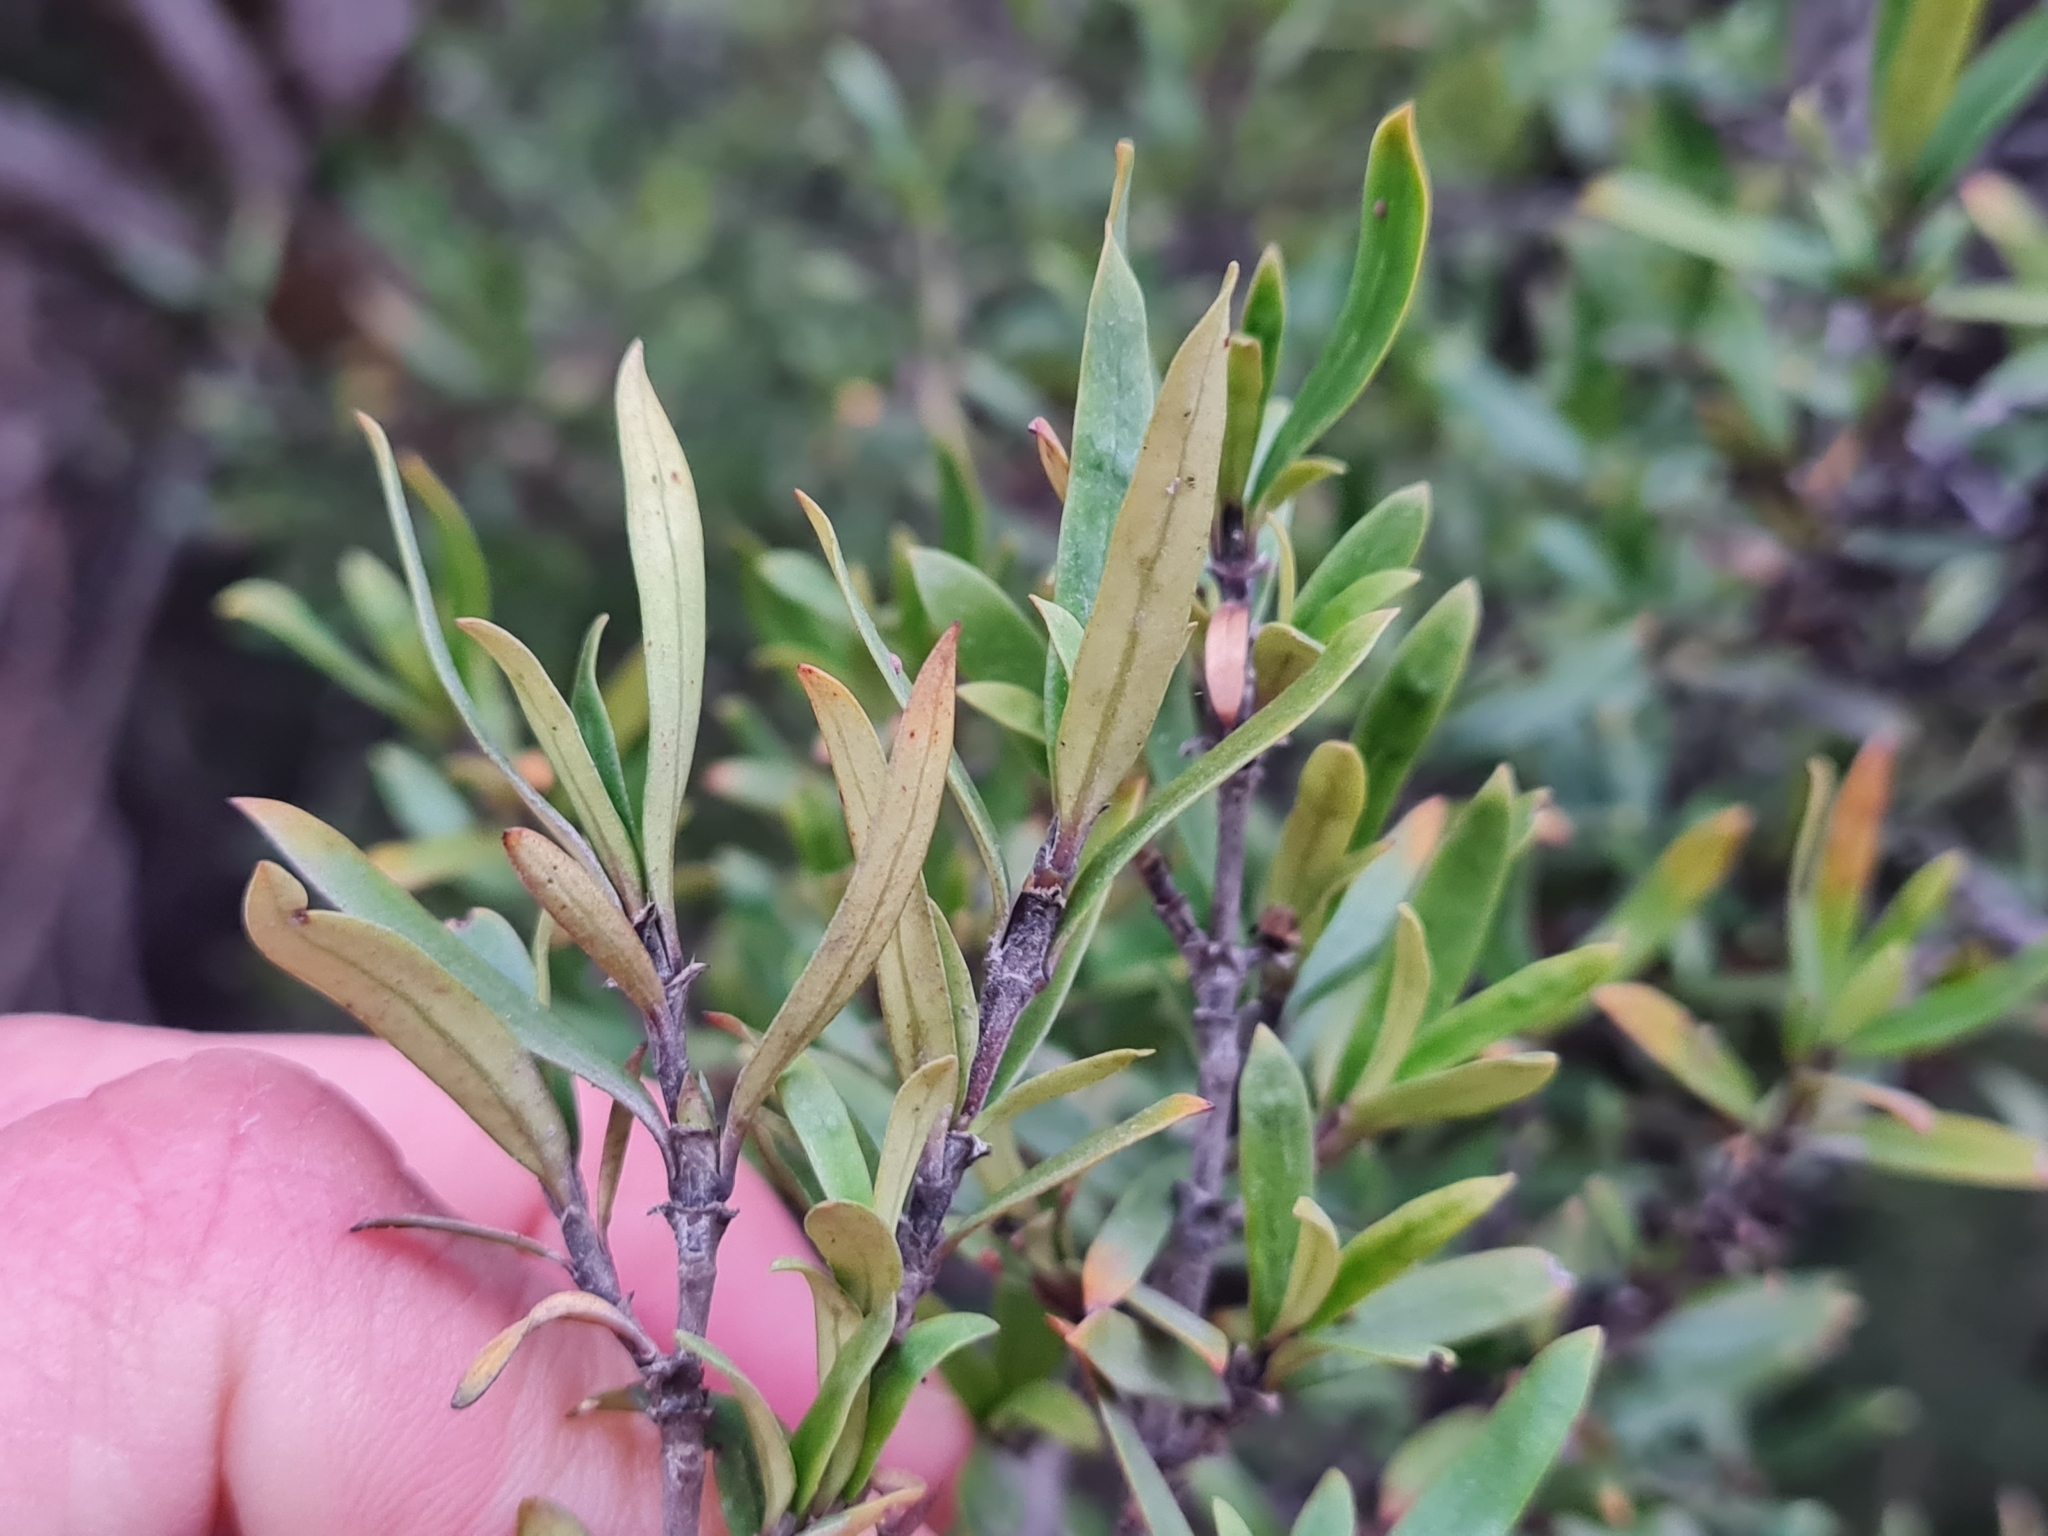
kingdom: Plantae
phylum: Tracheophyta
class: Magnoliopsida
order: Gentianales
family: Rubiaceae
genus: Coprosma
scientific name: Coprosma linariifolia
